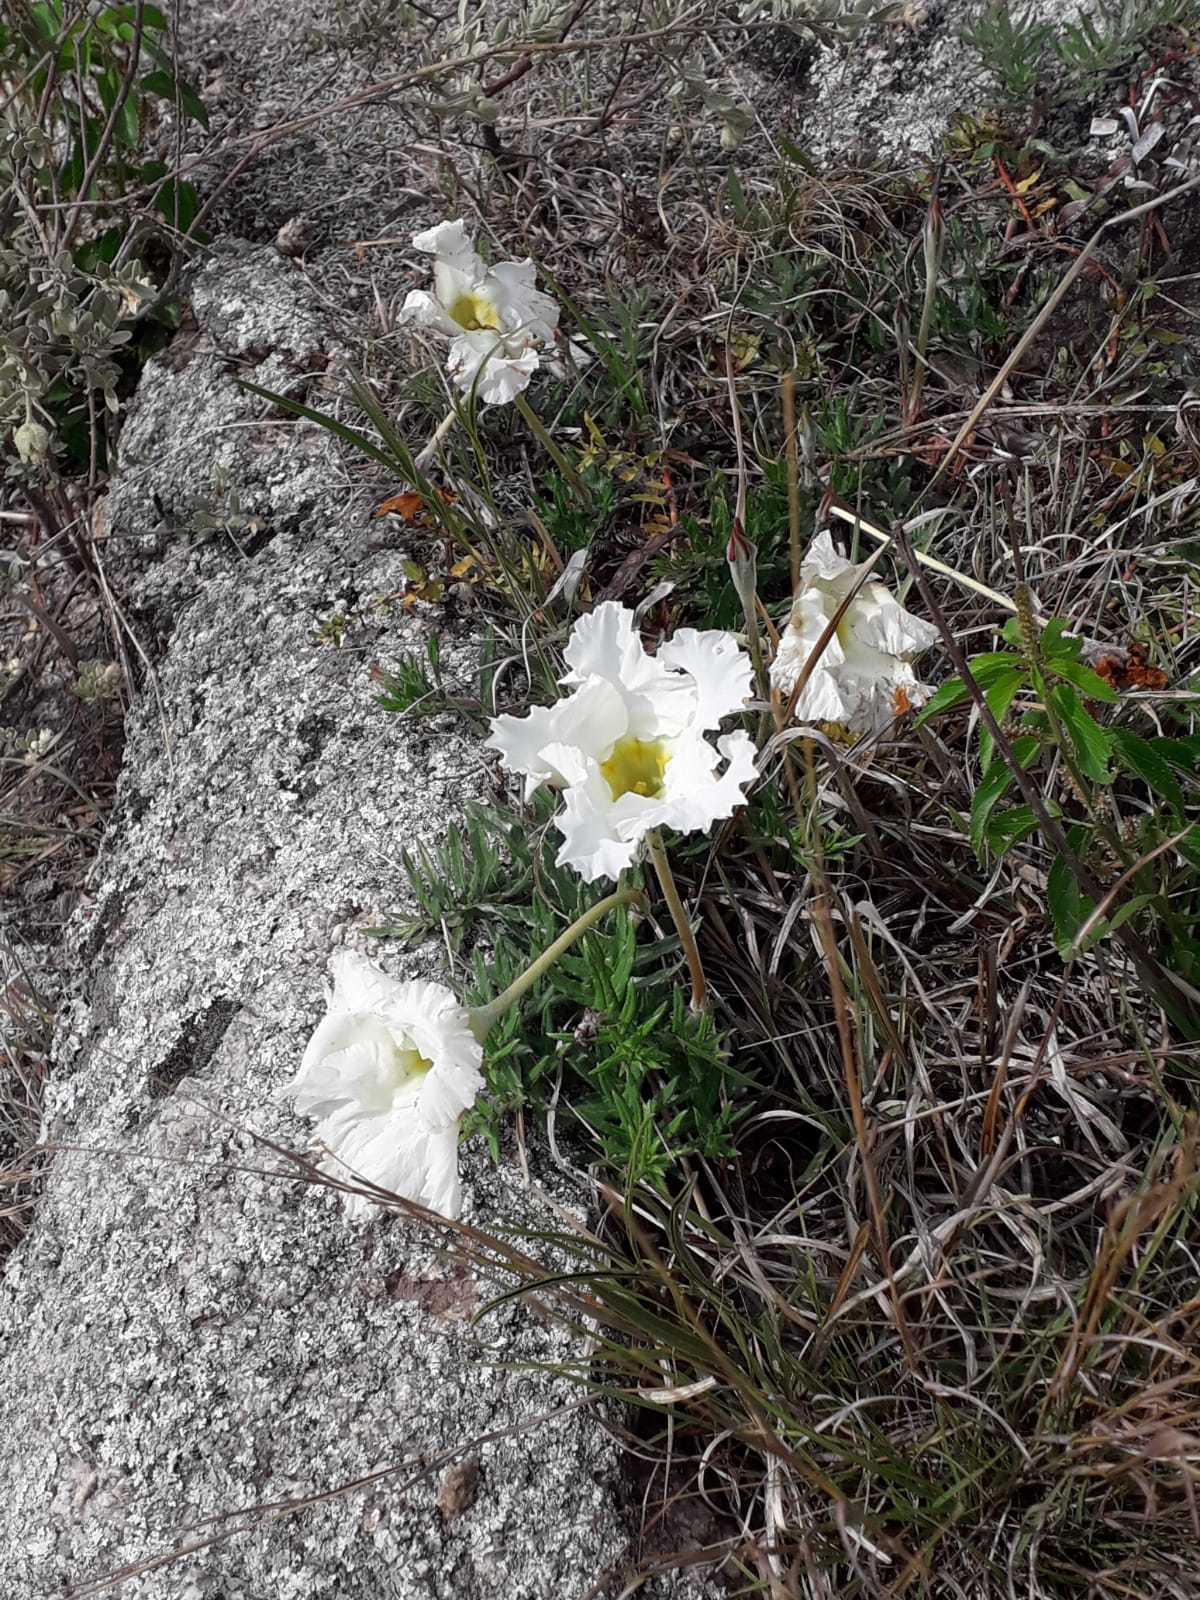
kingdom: Plantae
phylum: Tracheophyta
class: Magnoliopsida
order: Gentianales
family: Apocynaceae
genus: Mandevilla
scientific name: Mandevilla petraea
